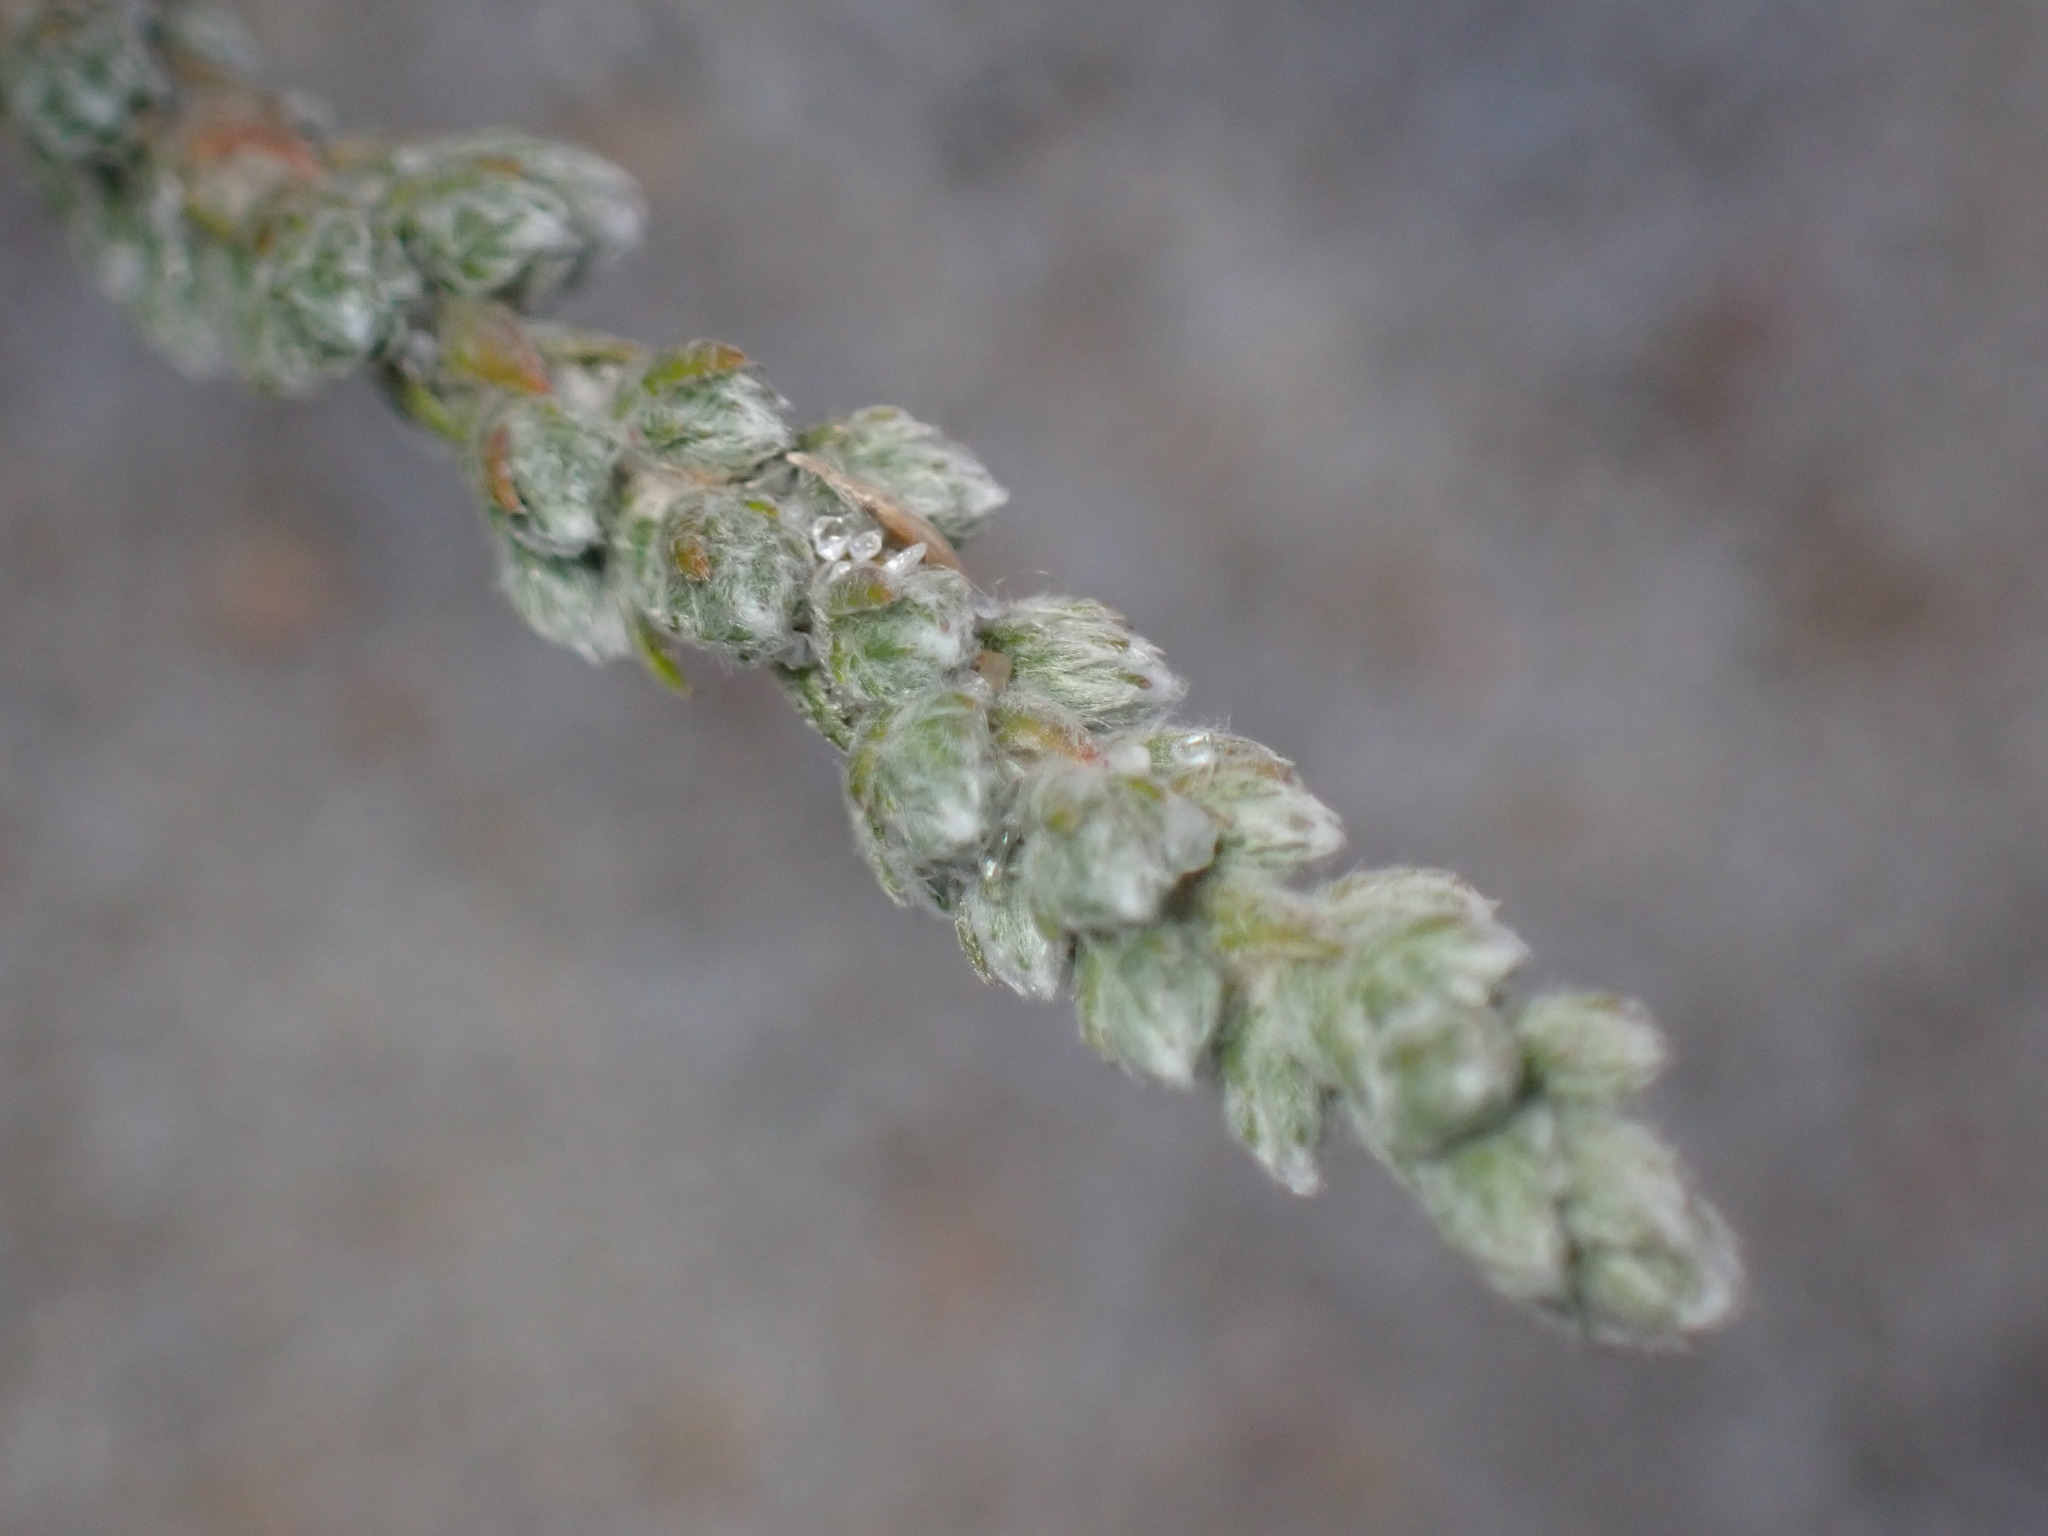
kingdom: Plantae
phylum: Tracheophyta
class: Magnoliopsida
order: Malvales
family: Cistaceae
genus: Hudsonia
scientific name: Hudsonia tomentosa
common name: Beach-heath
